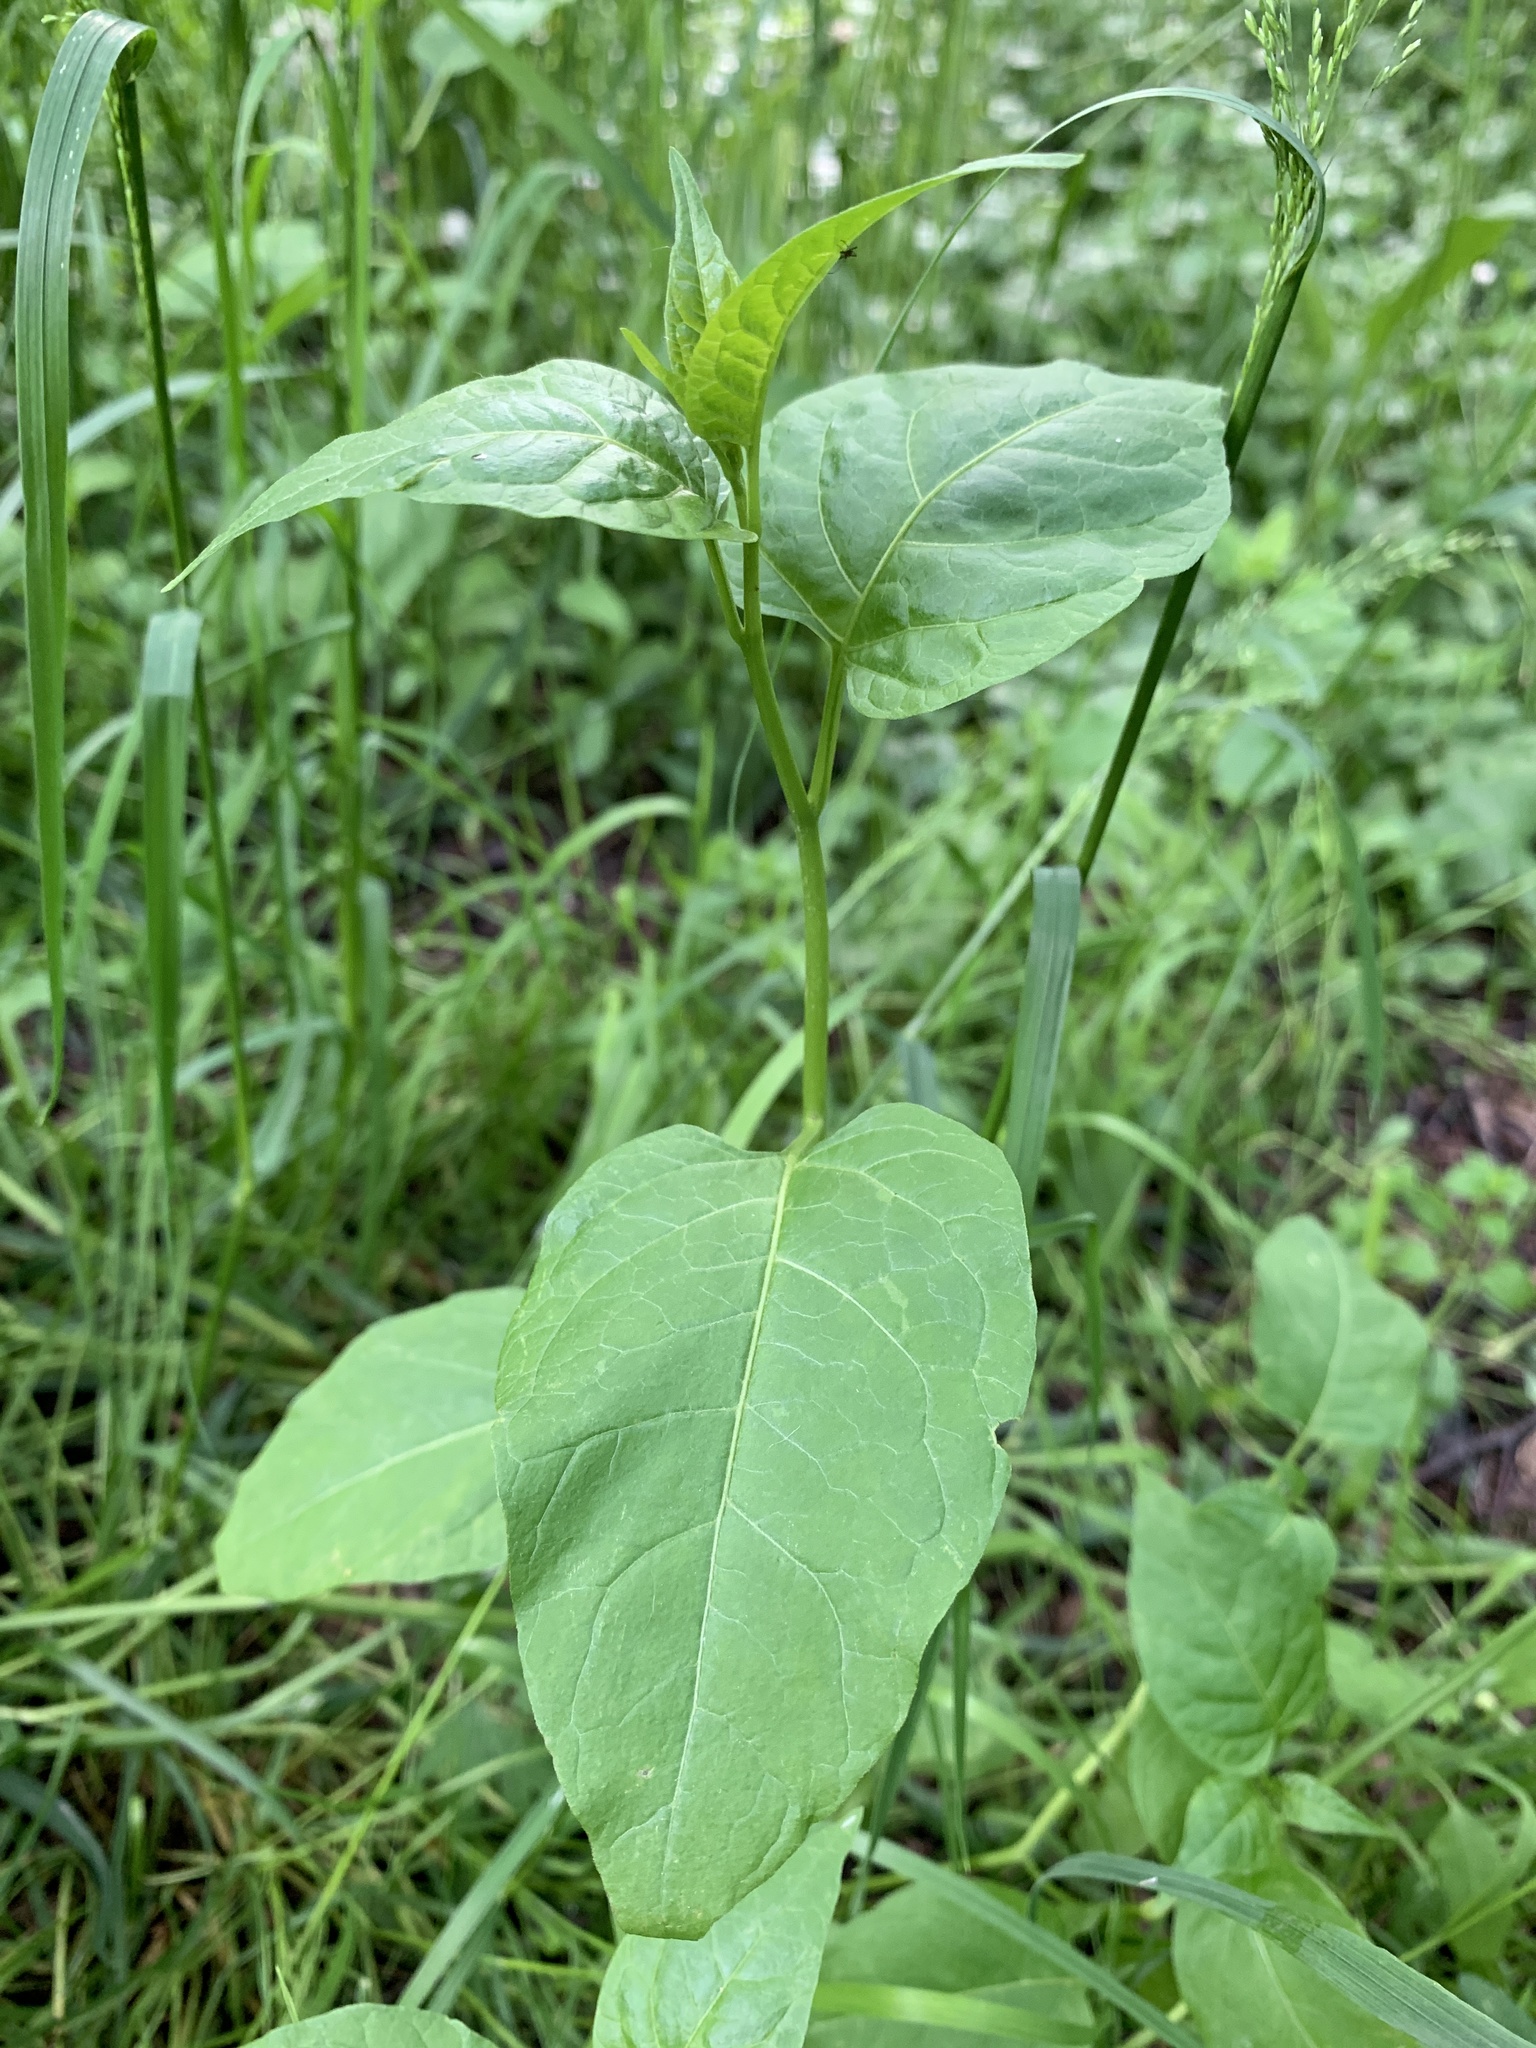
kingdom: Plantae
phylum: Tracheophyta
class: Magnoliopsida
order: Solanales
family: Solanaceae
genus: Solanum
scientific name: Solanum dulcamara
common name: Climbing nightshade
